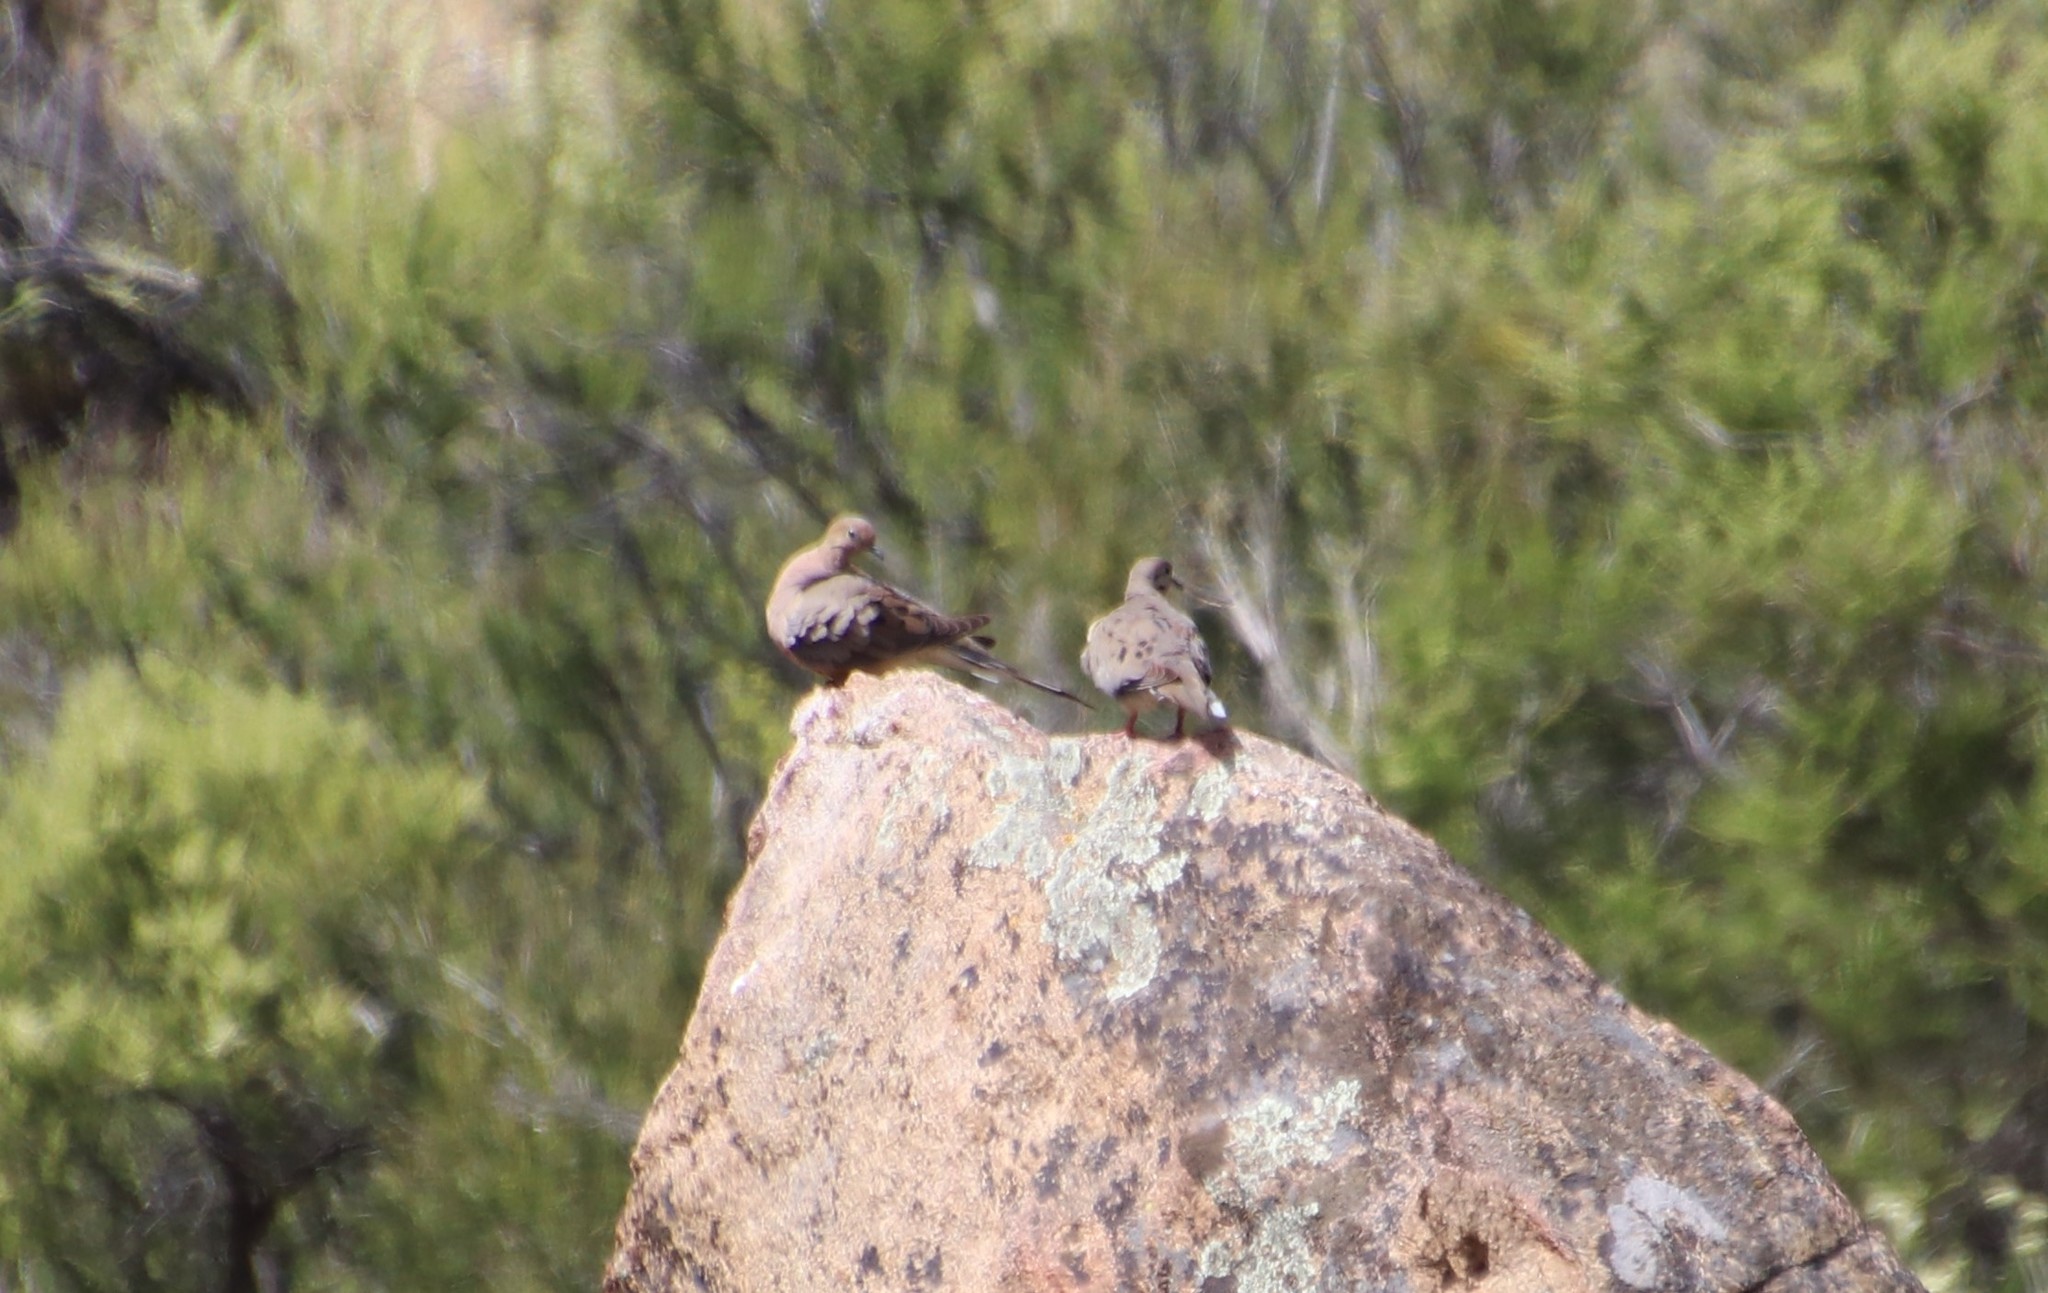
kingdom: Animalia
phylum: Chordata
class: Aves
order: Columbiformes
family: Columbidae
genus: Zenaida
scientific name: Zenaida macroura
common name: Mourning dove
